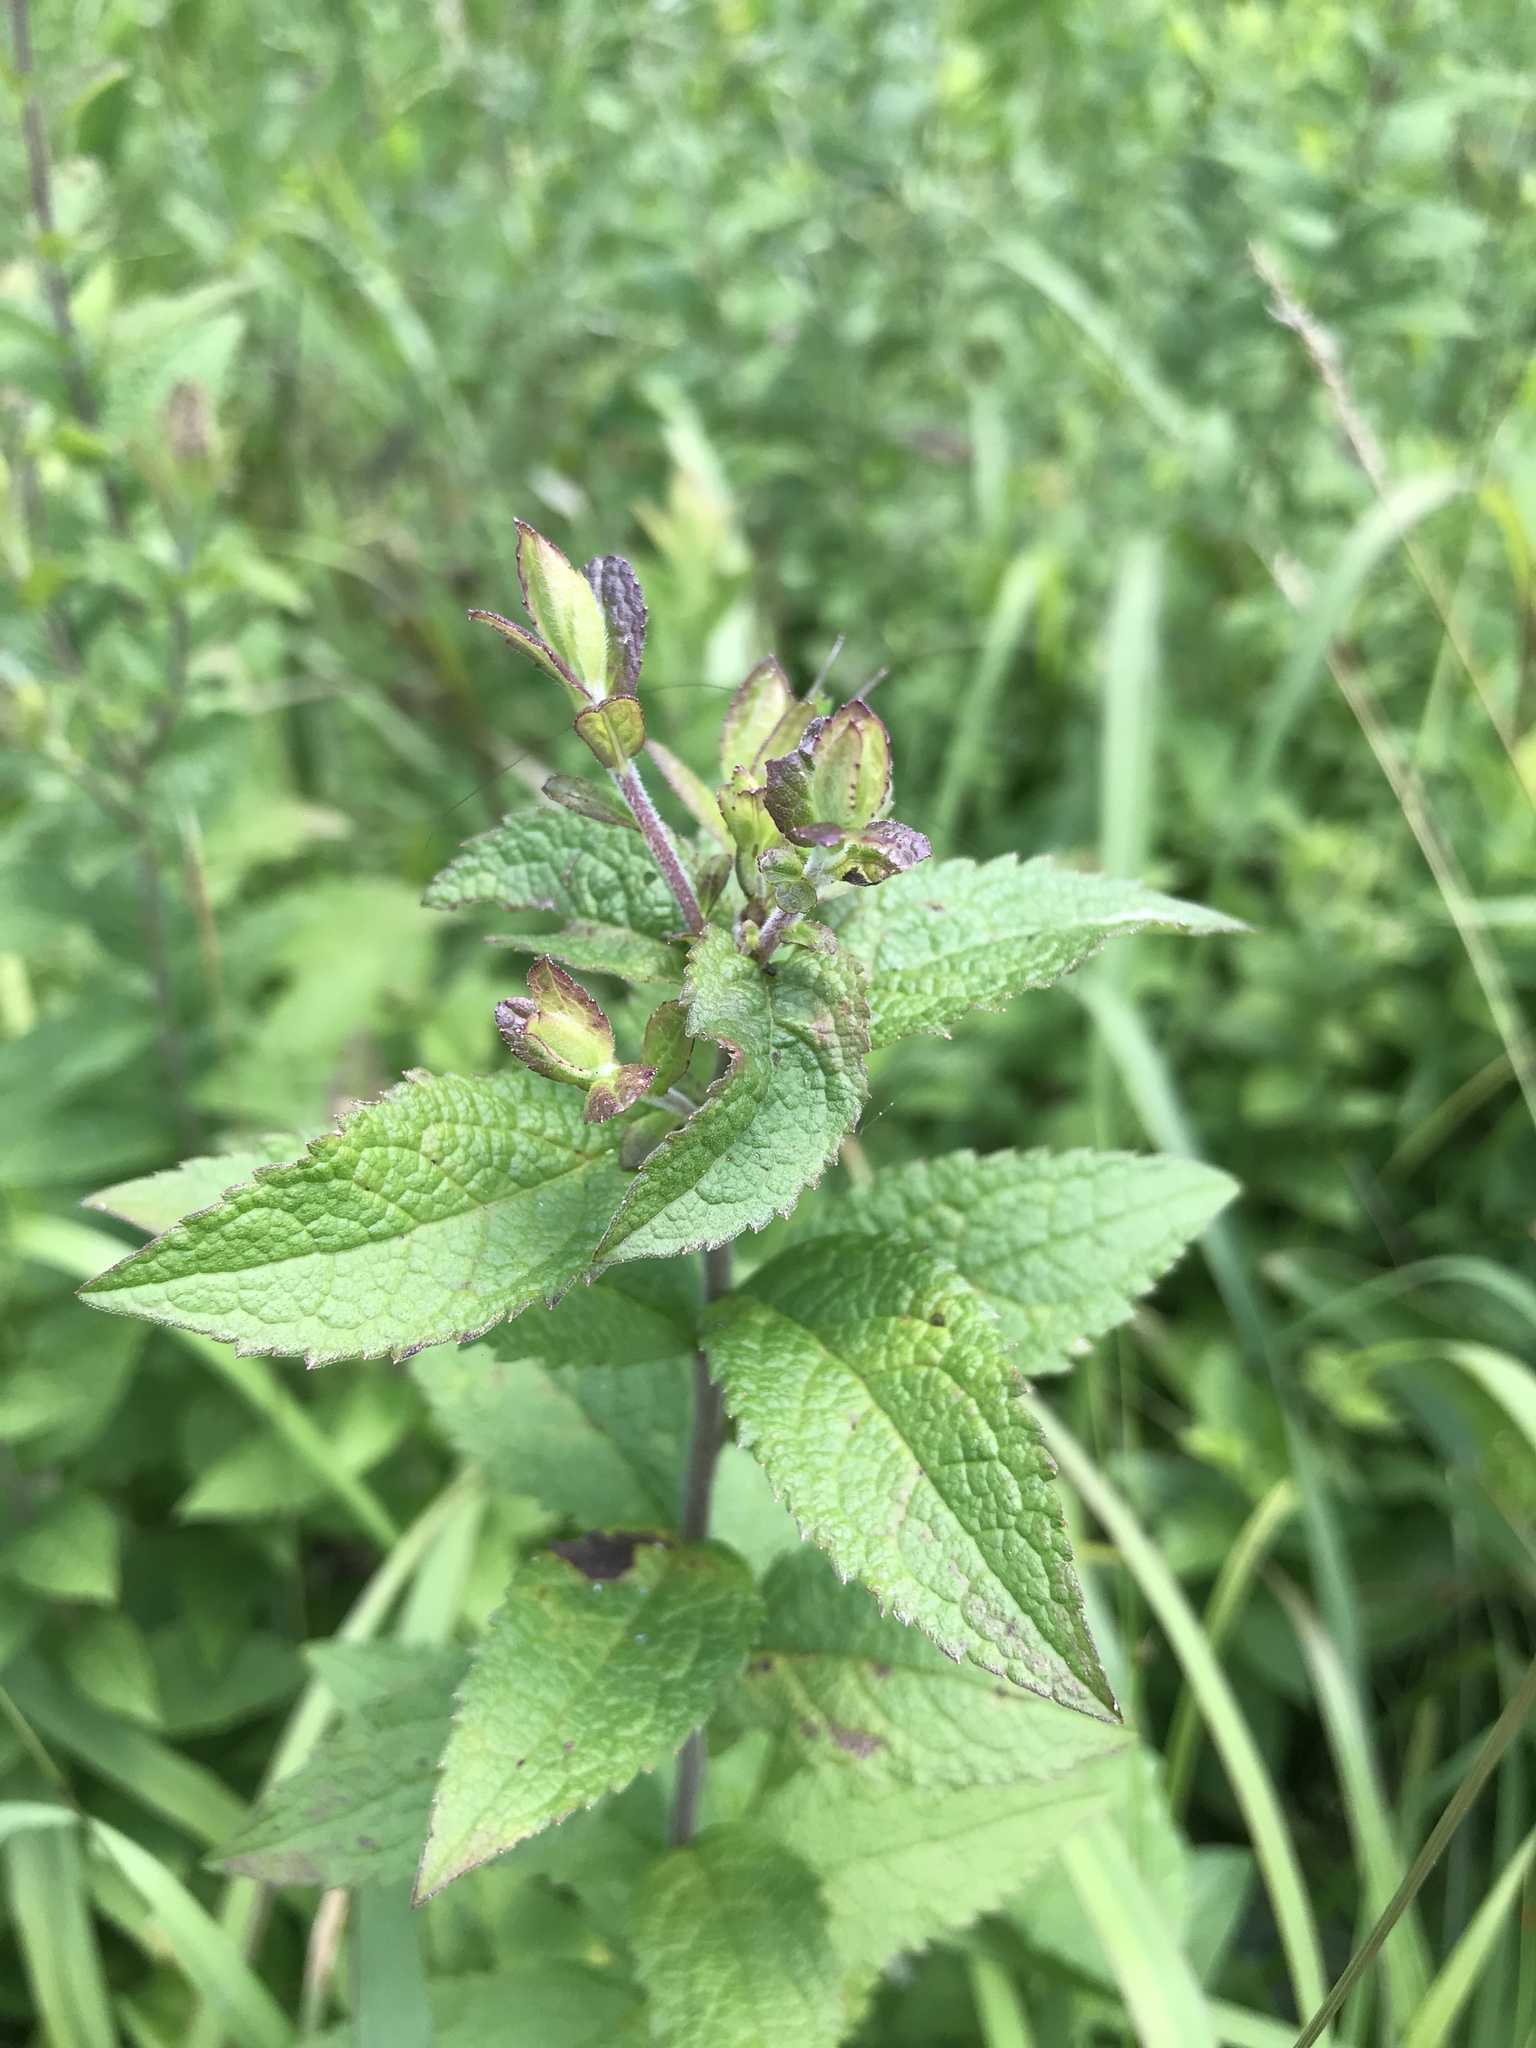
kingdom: Plantae
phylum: Tracheophyta
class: Magnoliopsida
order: Asterales
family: Asteraceae
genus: Solidago
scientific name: Solidago rugosa
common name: Rough-stemmed goldenrod
